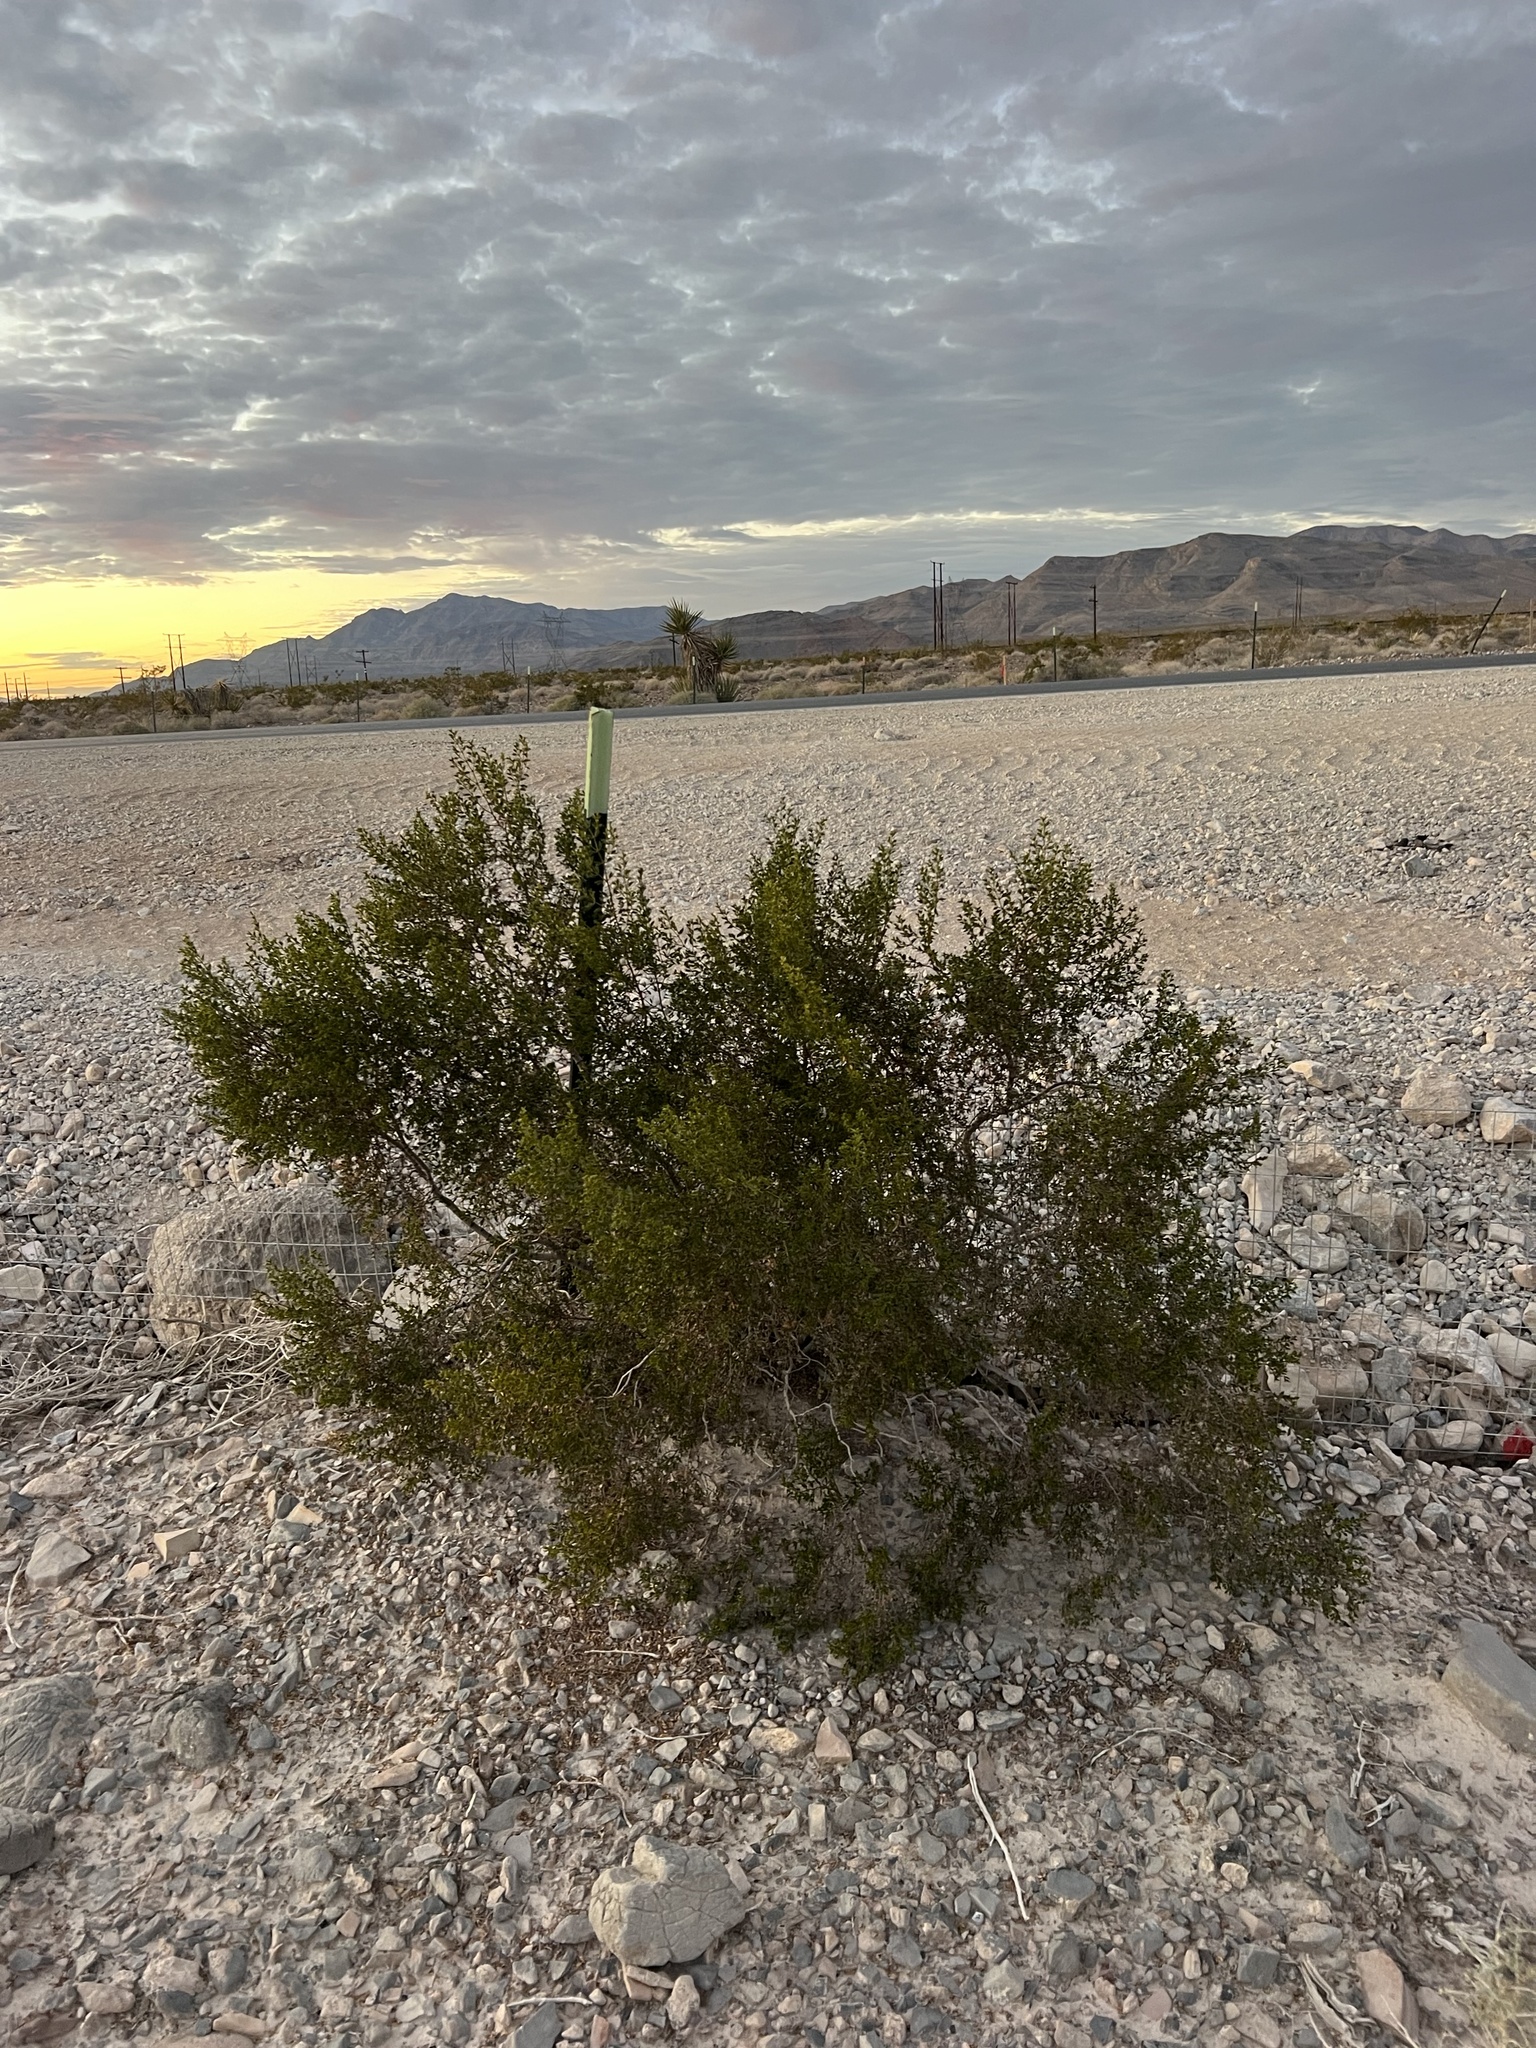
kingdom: Plantae
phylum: Tracheophyta
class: Magnoliopsida
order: Zygophyllales
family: Zygophyllaceae
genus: Larrea
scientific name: Larrea tridentata
